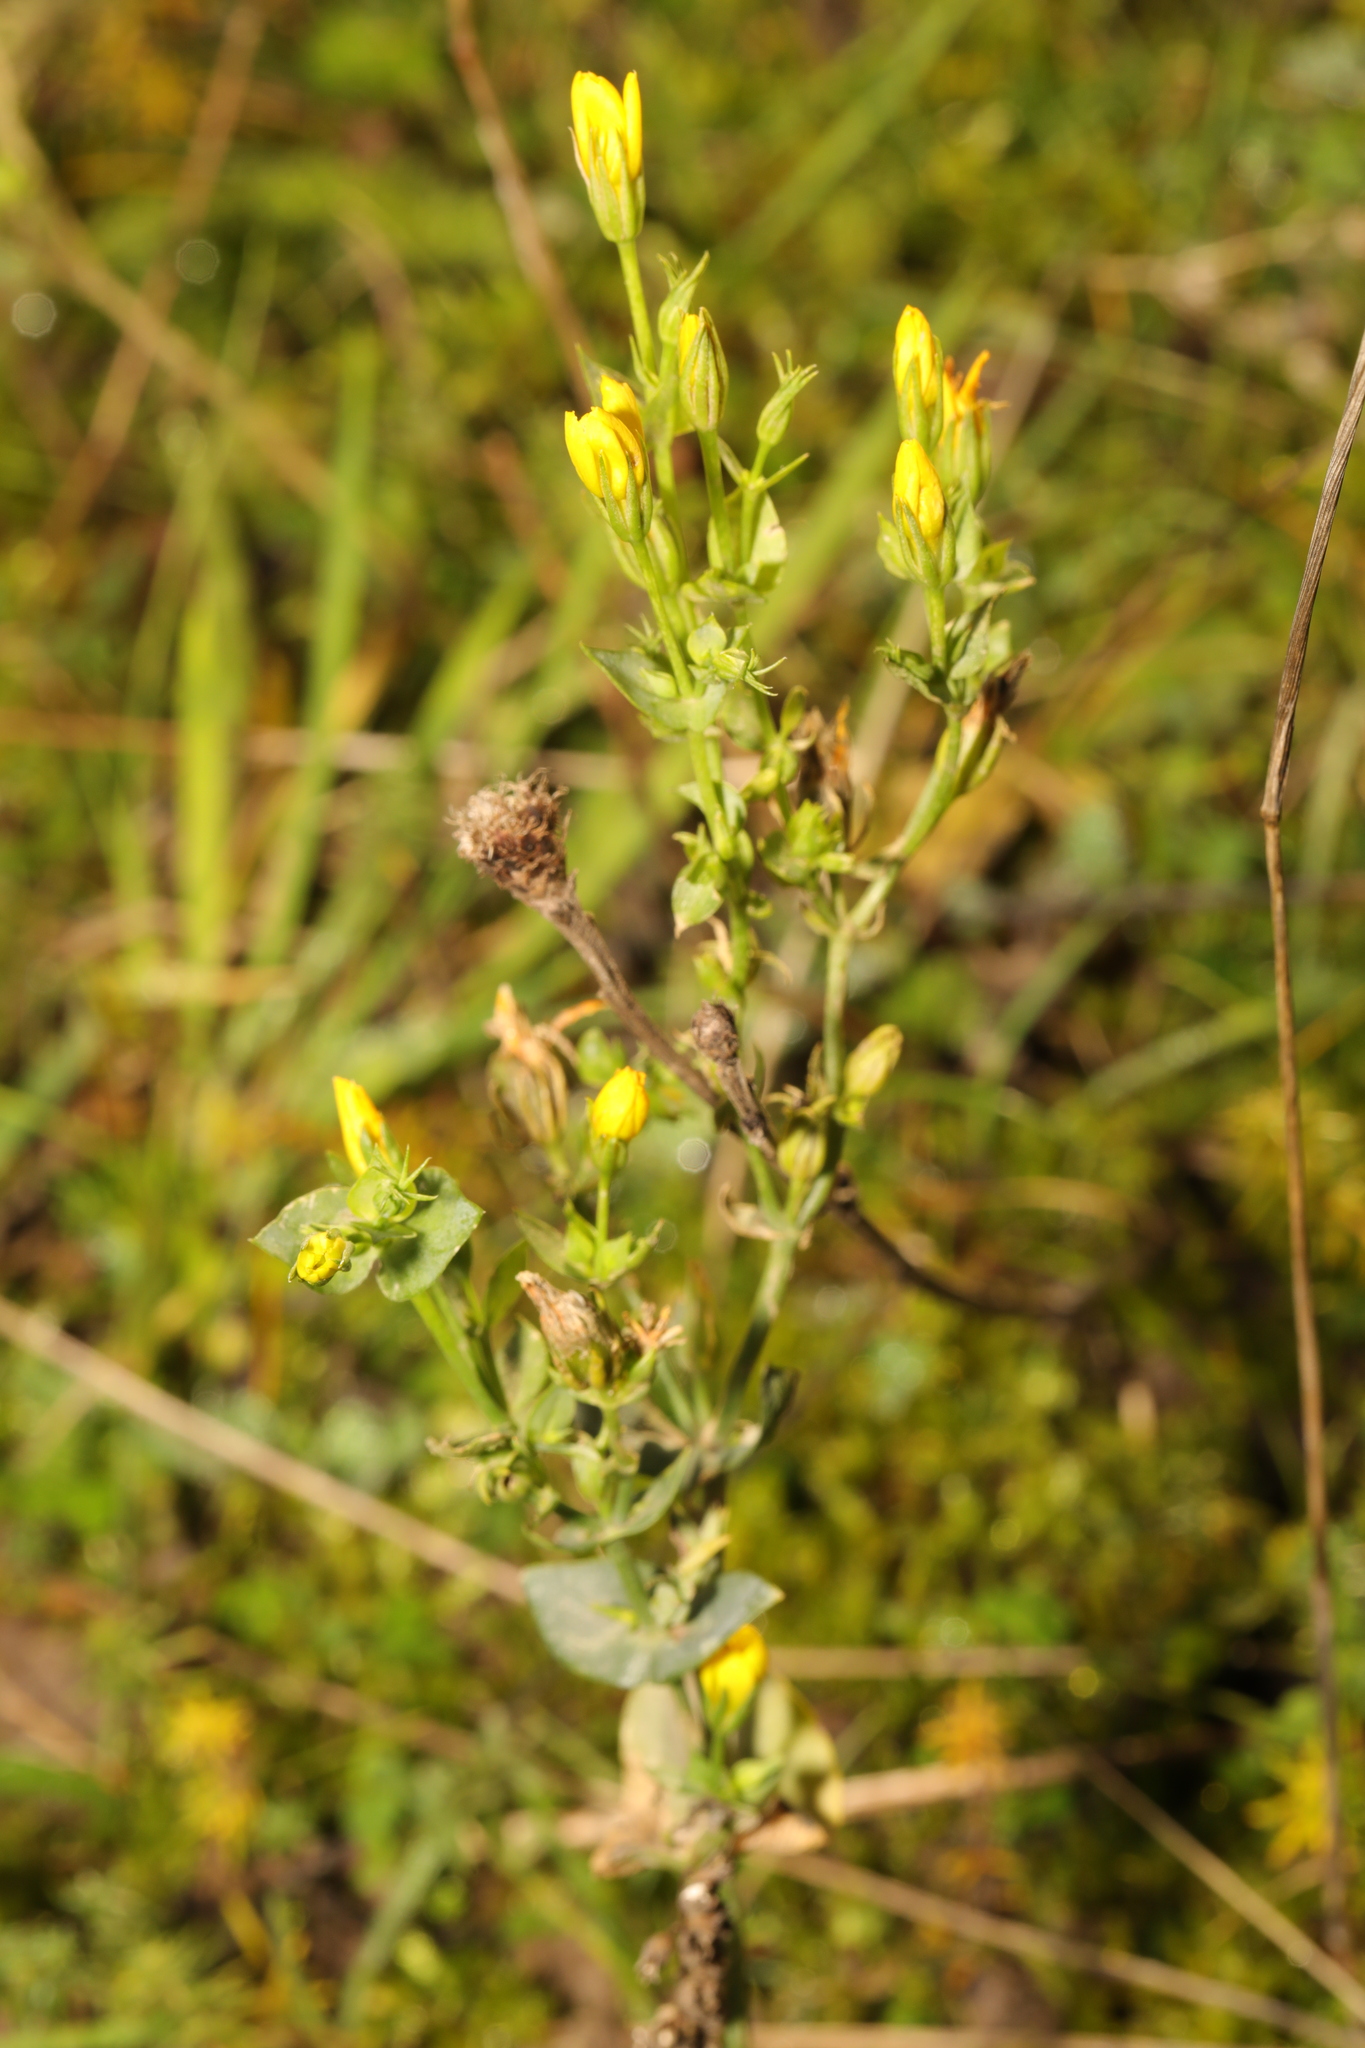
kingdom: Plantae
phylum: Tracheophyta
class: Magnoliopsida
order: Gentianales
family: Gentianaceae
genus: Blackstonia
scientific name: Blackstonia perfoliata
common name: Yellow-wort
